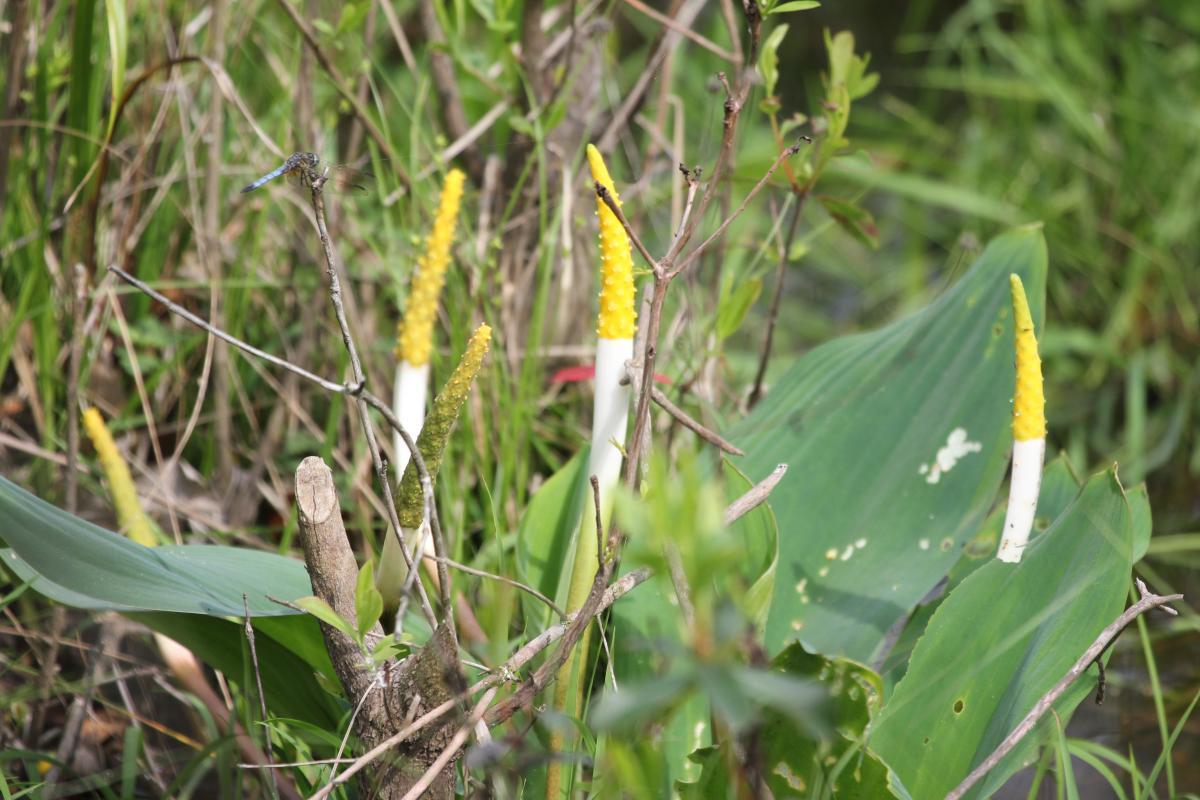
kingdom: Plantae
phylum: Tracheophyta
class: Liliopsida
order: Alismatales
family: Araceae
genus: Orontium
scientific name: Orontium aquaticum
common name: Golden-club
